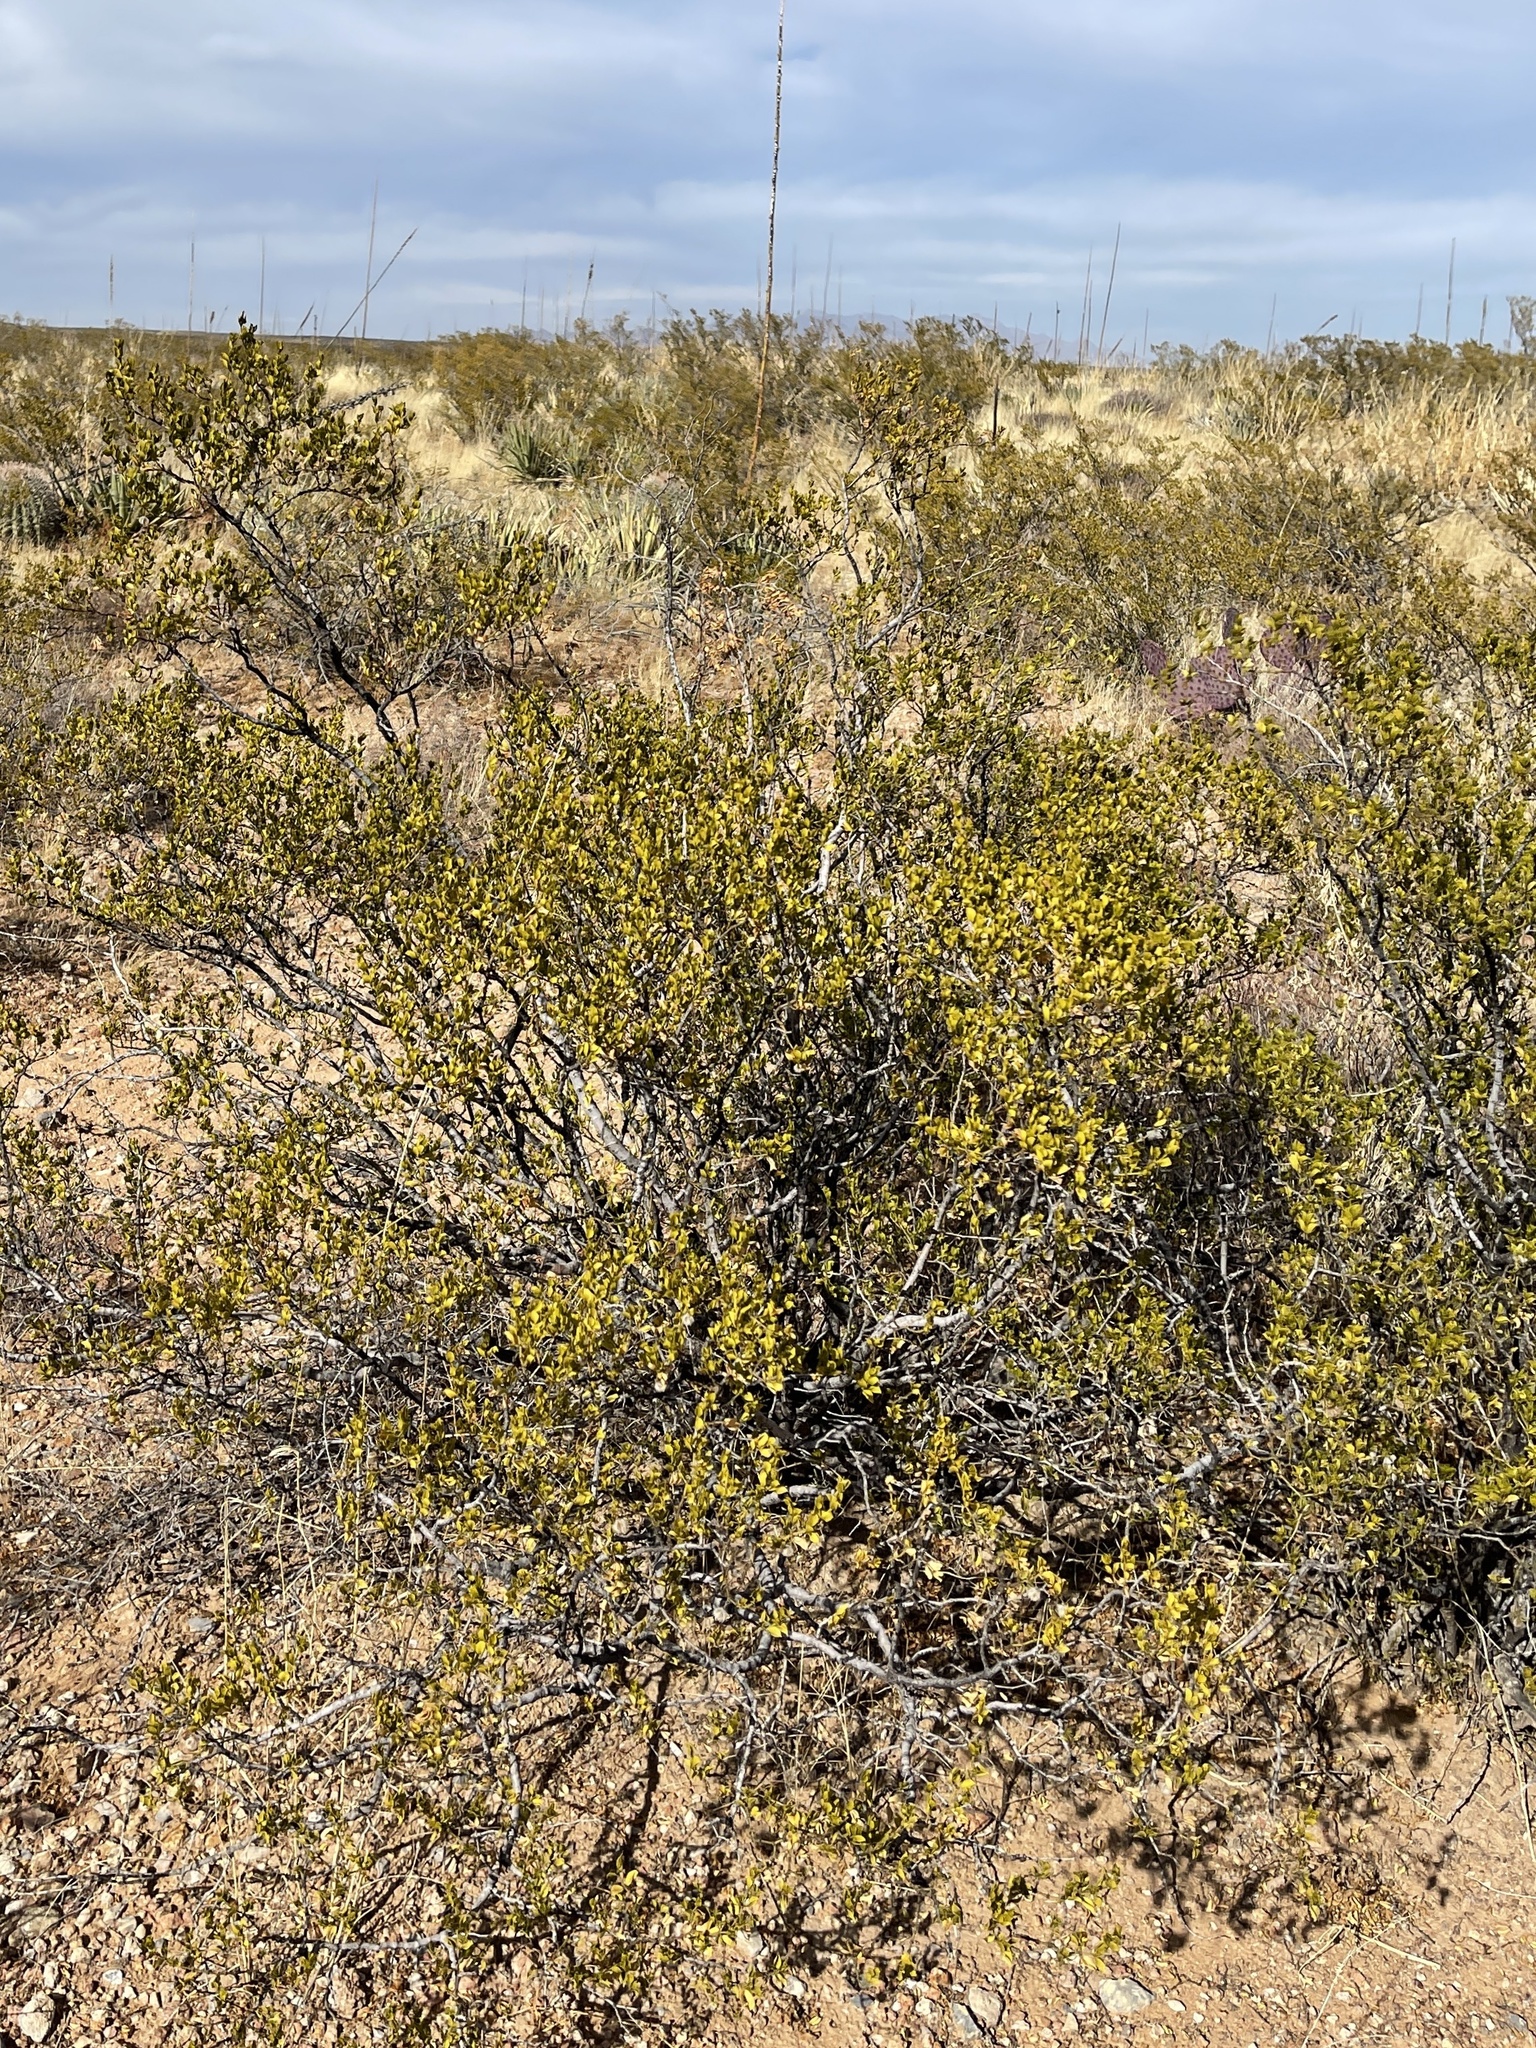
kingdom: Plantae
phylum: Tracheophyta
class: Magnoliopsida
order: Zygophyllales
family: Zygophyllaceae
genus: Larrea
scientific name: Larrea tridentata
